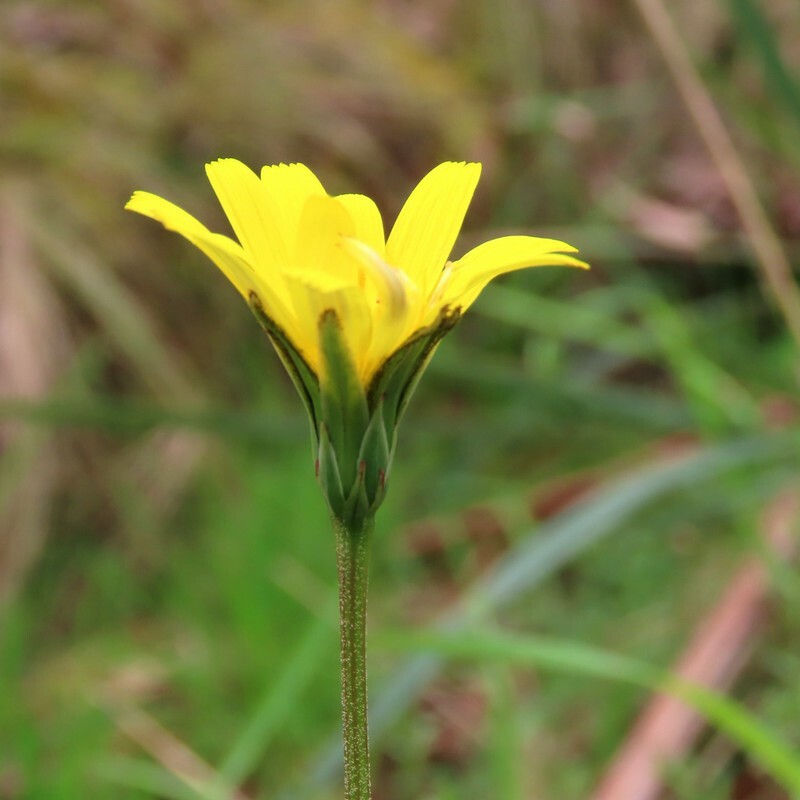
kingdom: Plantae
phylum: Tracheophyta
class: Magnoliopsida
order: Asterales
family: Asteraceae
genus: Microseris
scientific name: Microseris lanceolata
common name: Yam daisy
